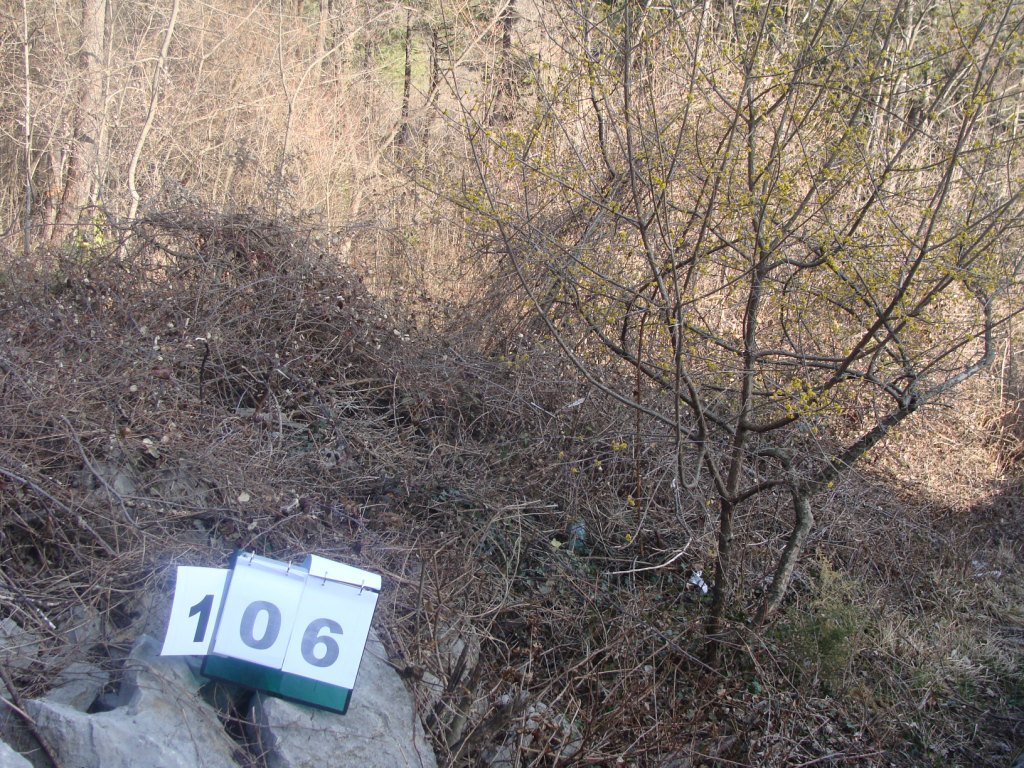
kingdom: Plantae
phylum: Tracheophyta
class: Magnoliopsida
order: Cornales
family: Cornaceae
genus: Cornus
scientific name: Cornus mas
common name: Cornelian-cherry
